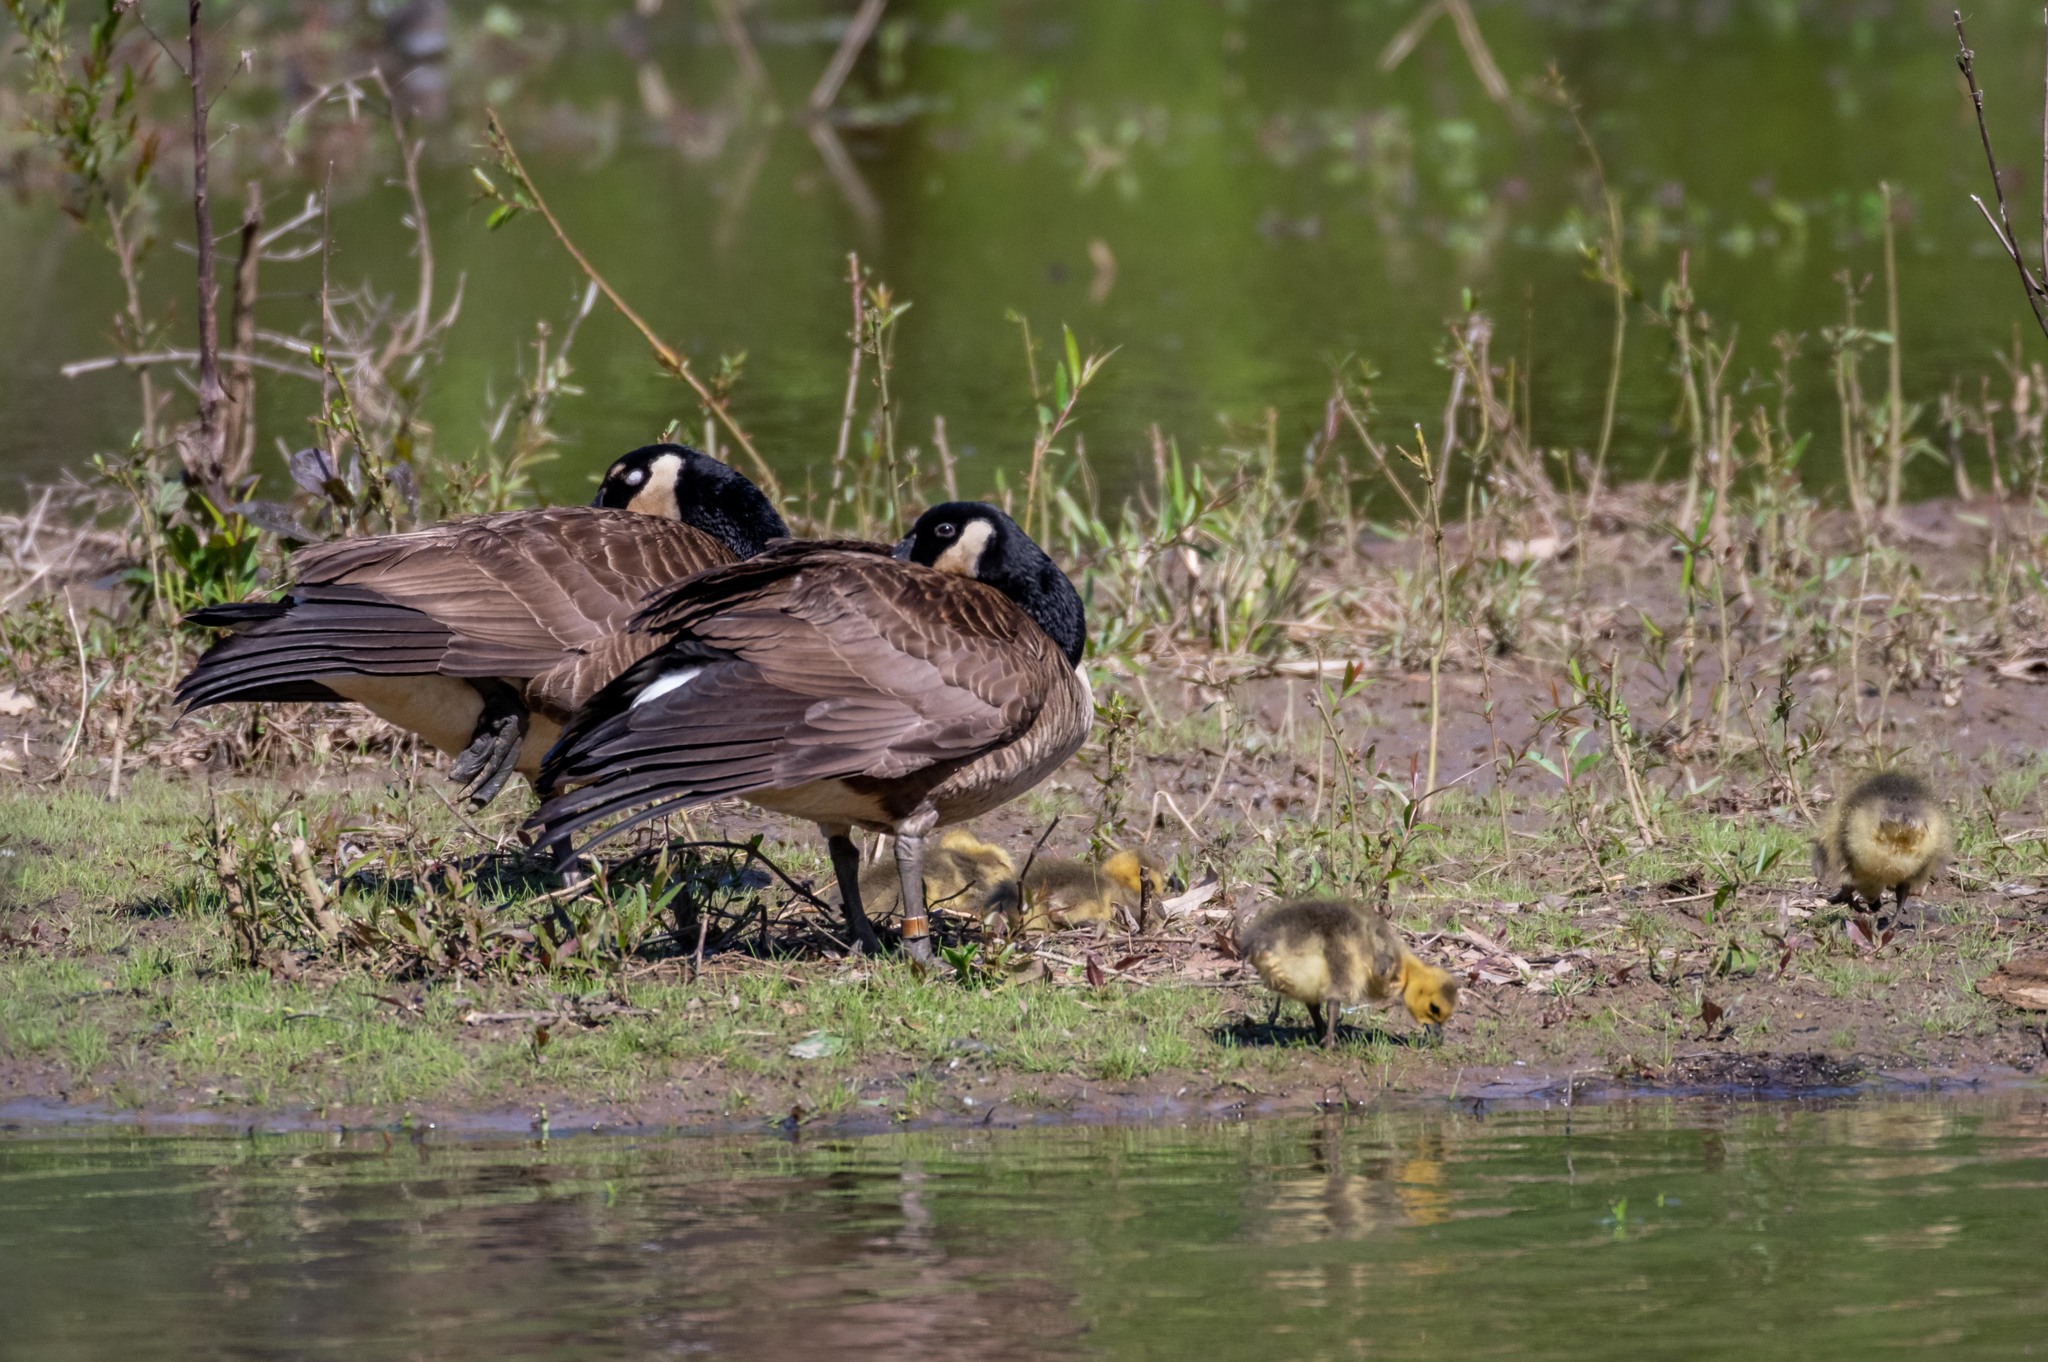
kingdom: Animalia
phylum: Chordata
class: Aves
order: Anseriformes
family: Anatidae
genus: Branta
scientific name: Branta canadensis
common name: Canada goose
